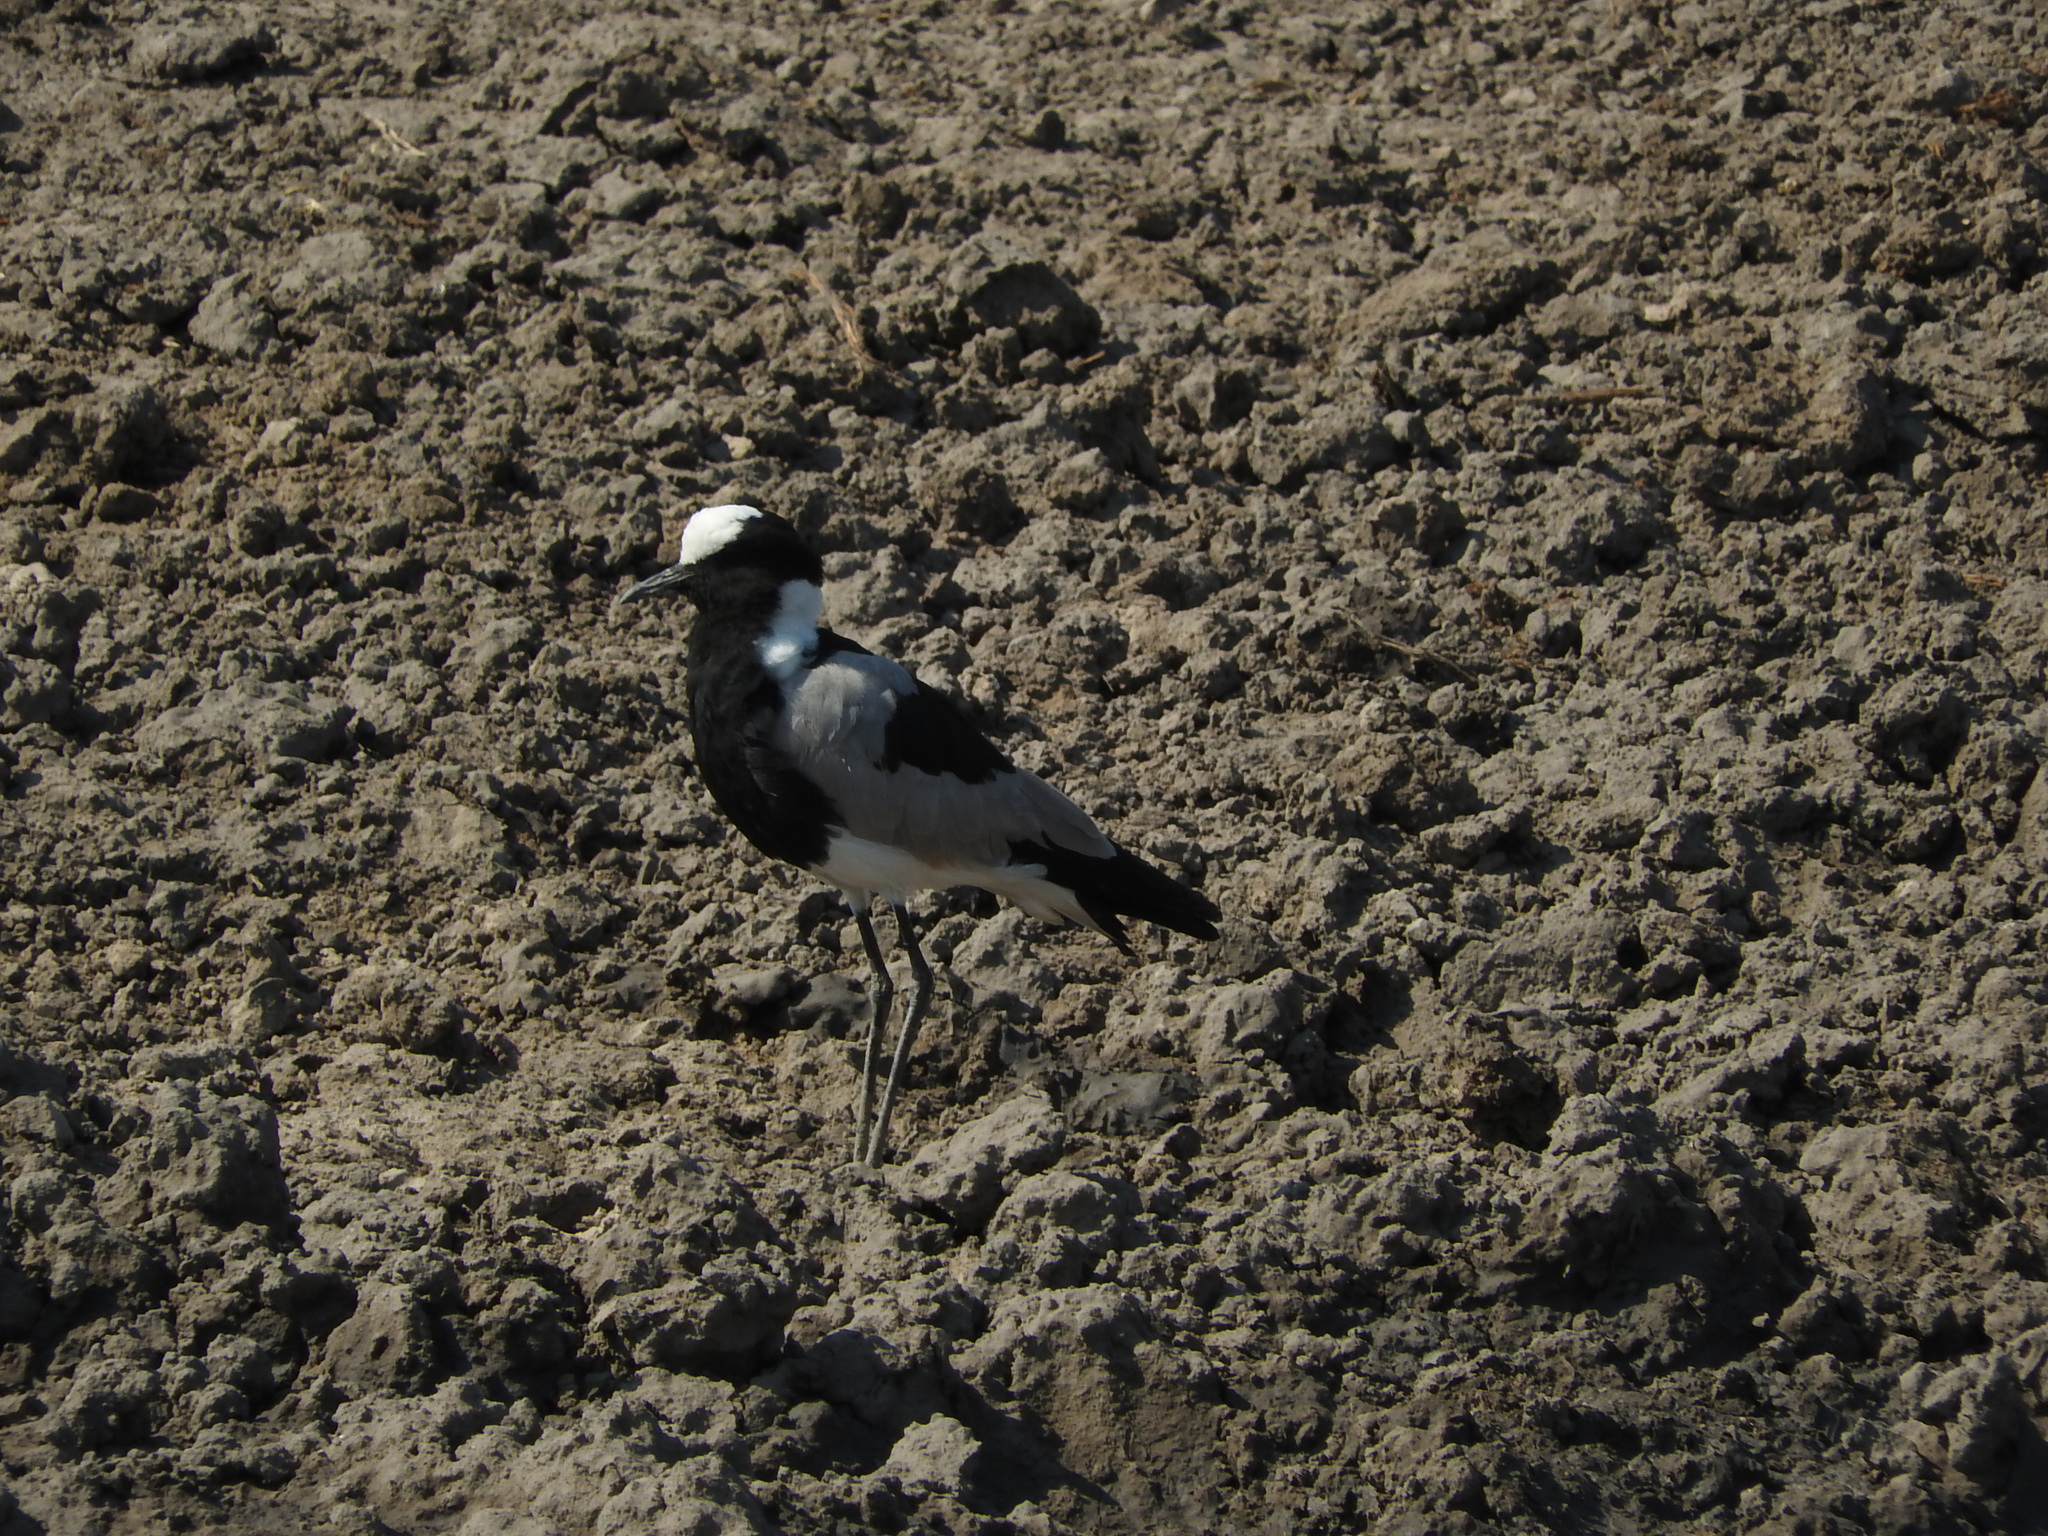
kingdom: Animalia
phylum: Chordata
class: Aves
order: Charadriiformes
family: Charadriidae
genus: Vanellus
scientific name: Vanellus armatus
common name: Blacksmith lapwing
